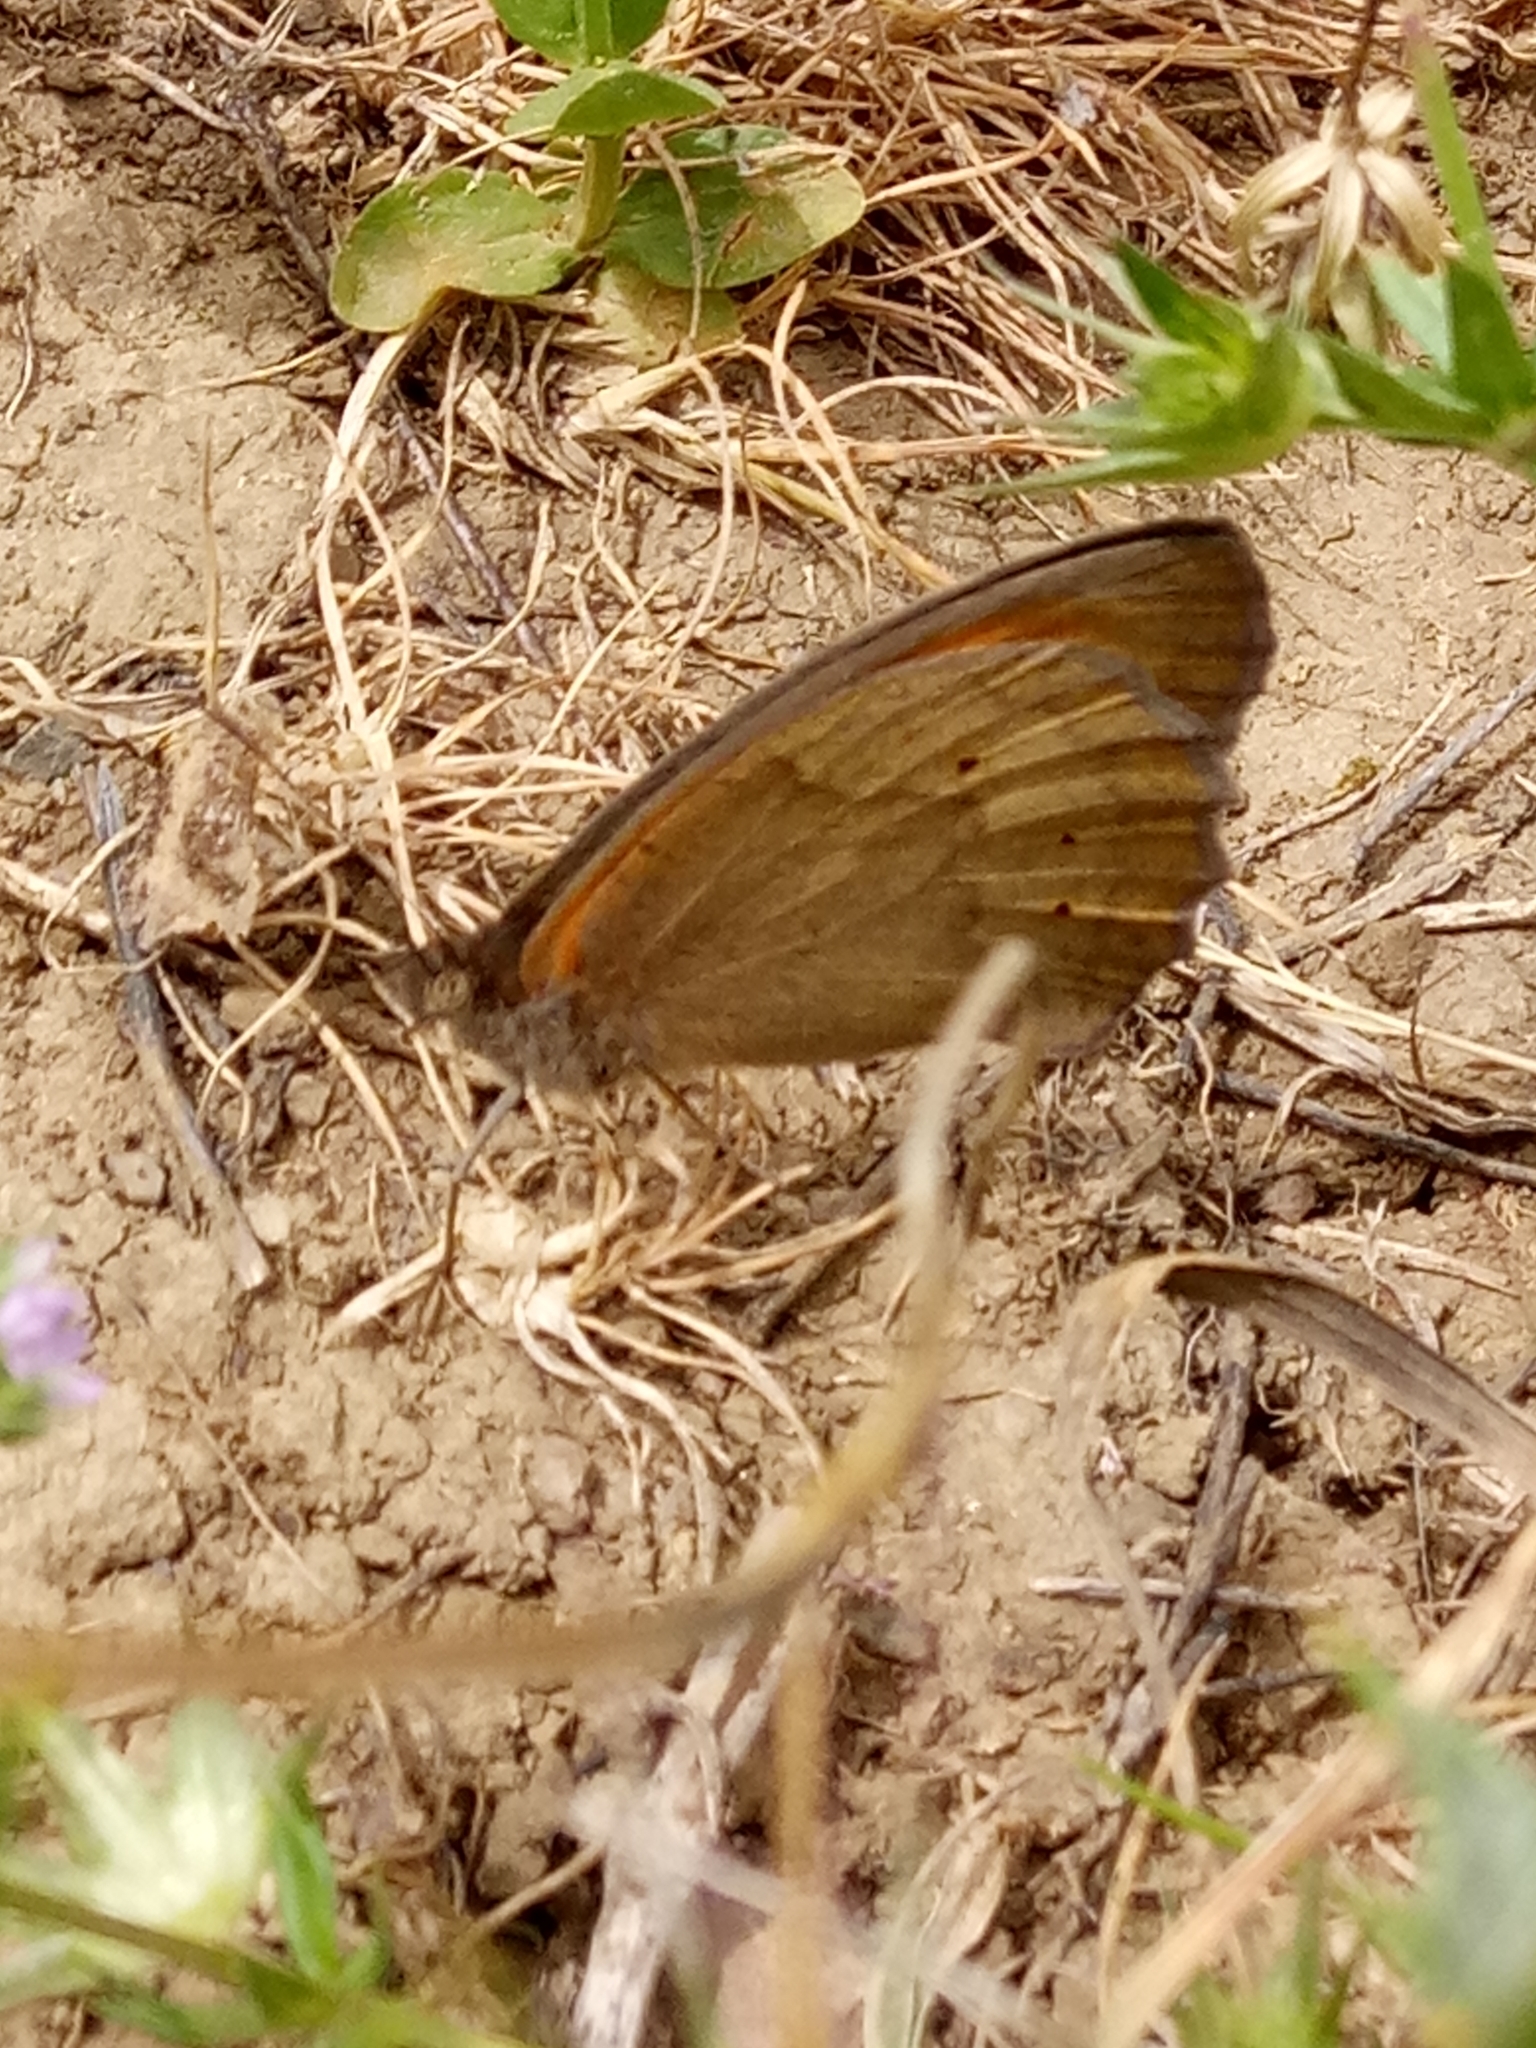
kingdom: Animalia
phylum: Arthropoda
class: Insecta
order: Lepidoptera
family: Nymphalidae
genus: Maniola
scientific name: Maniola jurtina
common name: Meadow brown
